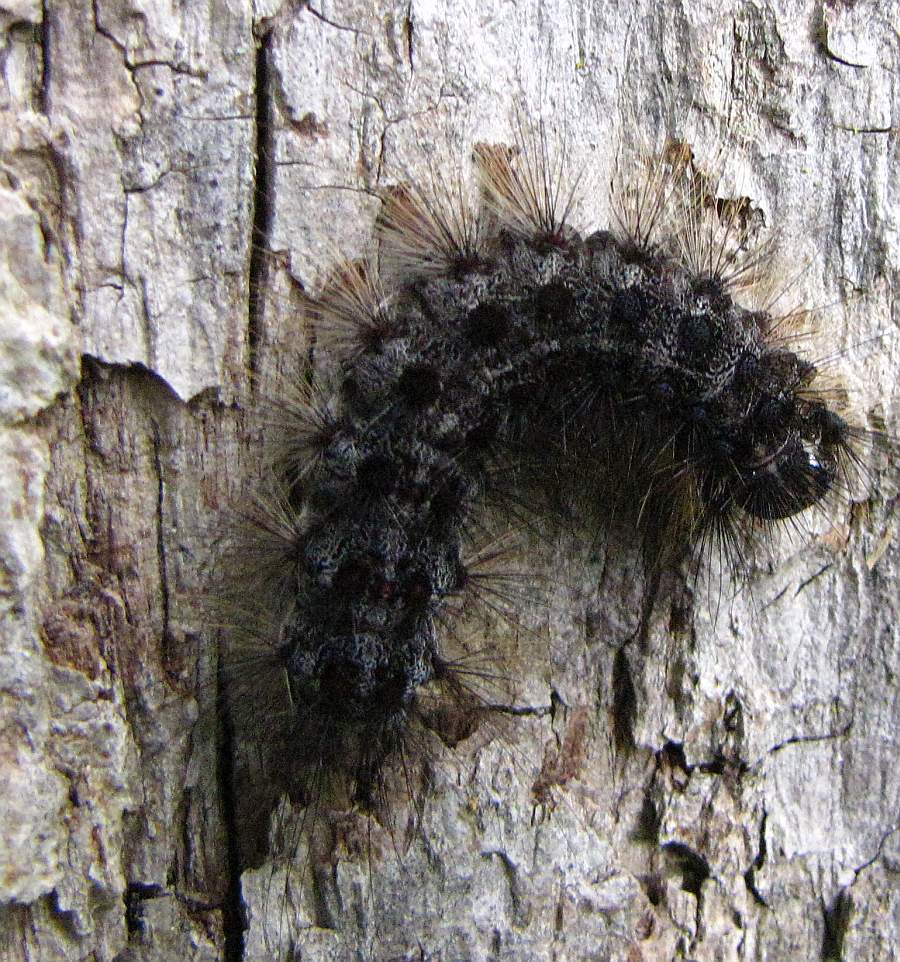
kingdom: Animalia
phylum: Arthropoda
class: Insecta
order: Lepidoptera
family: Erebidae
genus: Lymantria
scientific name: Lymantria dispar
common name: Gypsy moth
